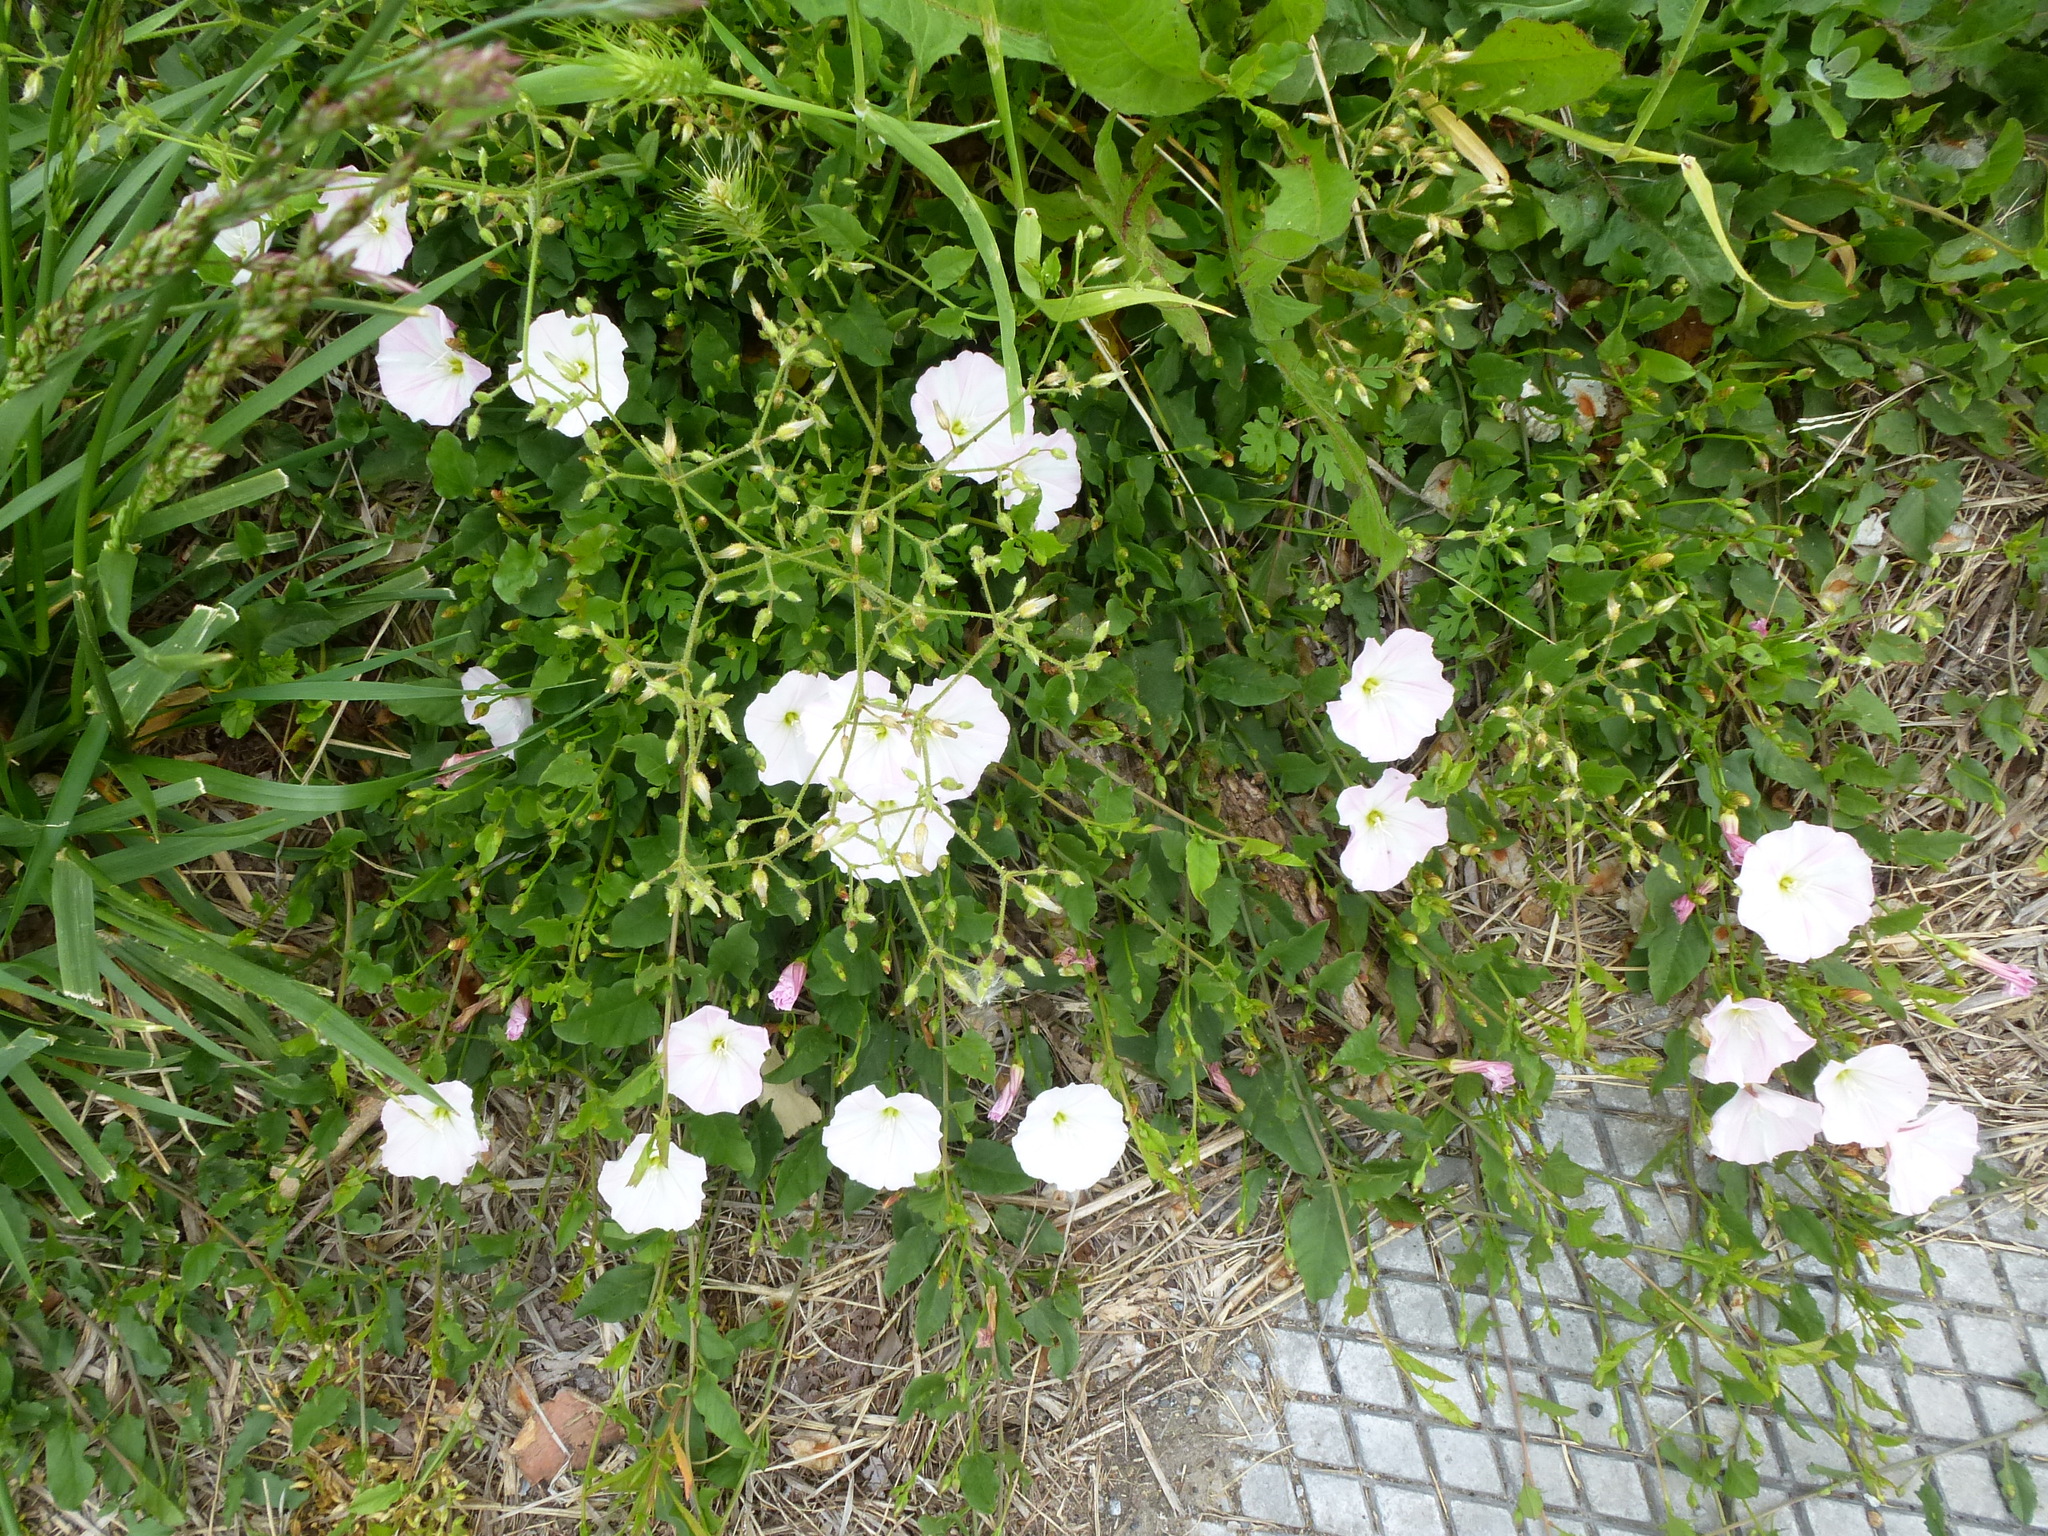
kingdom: Plantae
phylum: Tracheophyta
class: Magnoliopsida
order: Solanales
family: Convolvulaceae
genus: Convolvulus
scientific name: Convolvulus arvensis
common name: Field bindweed
